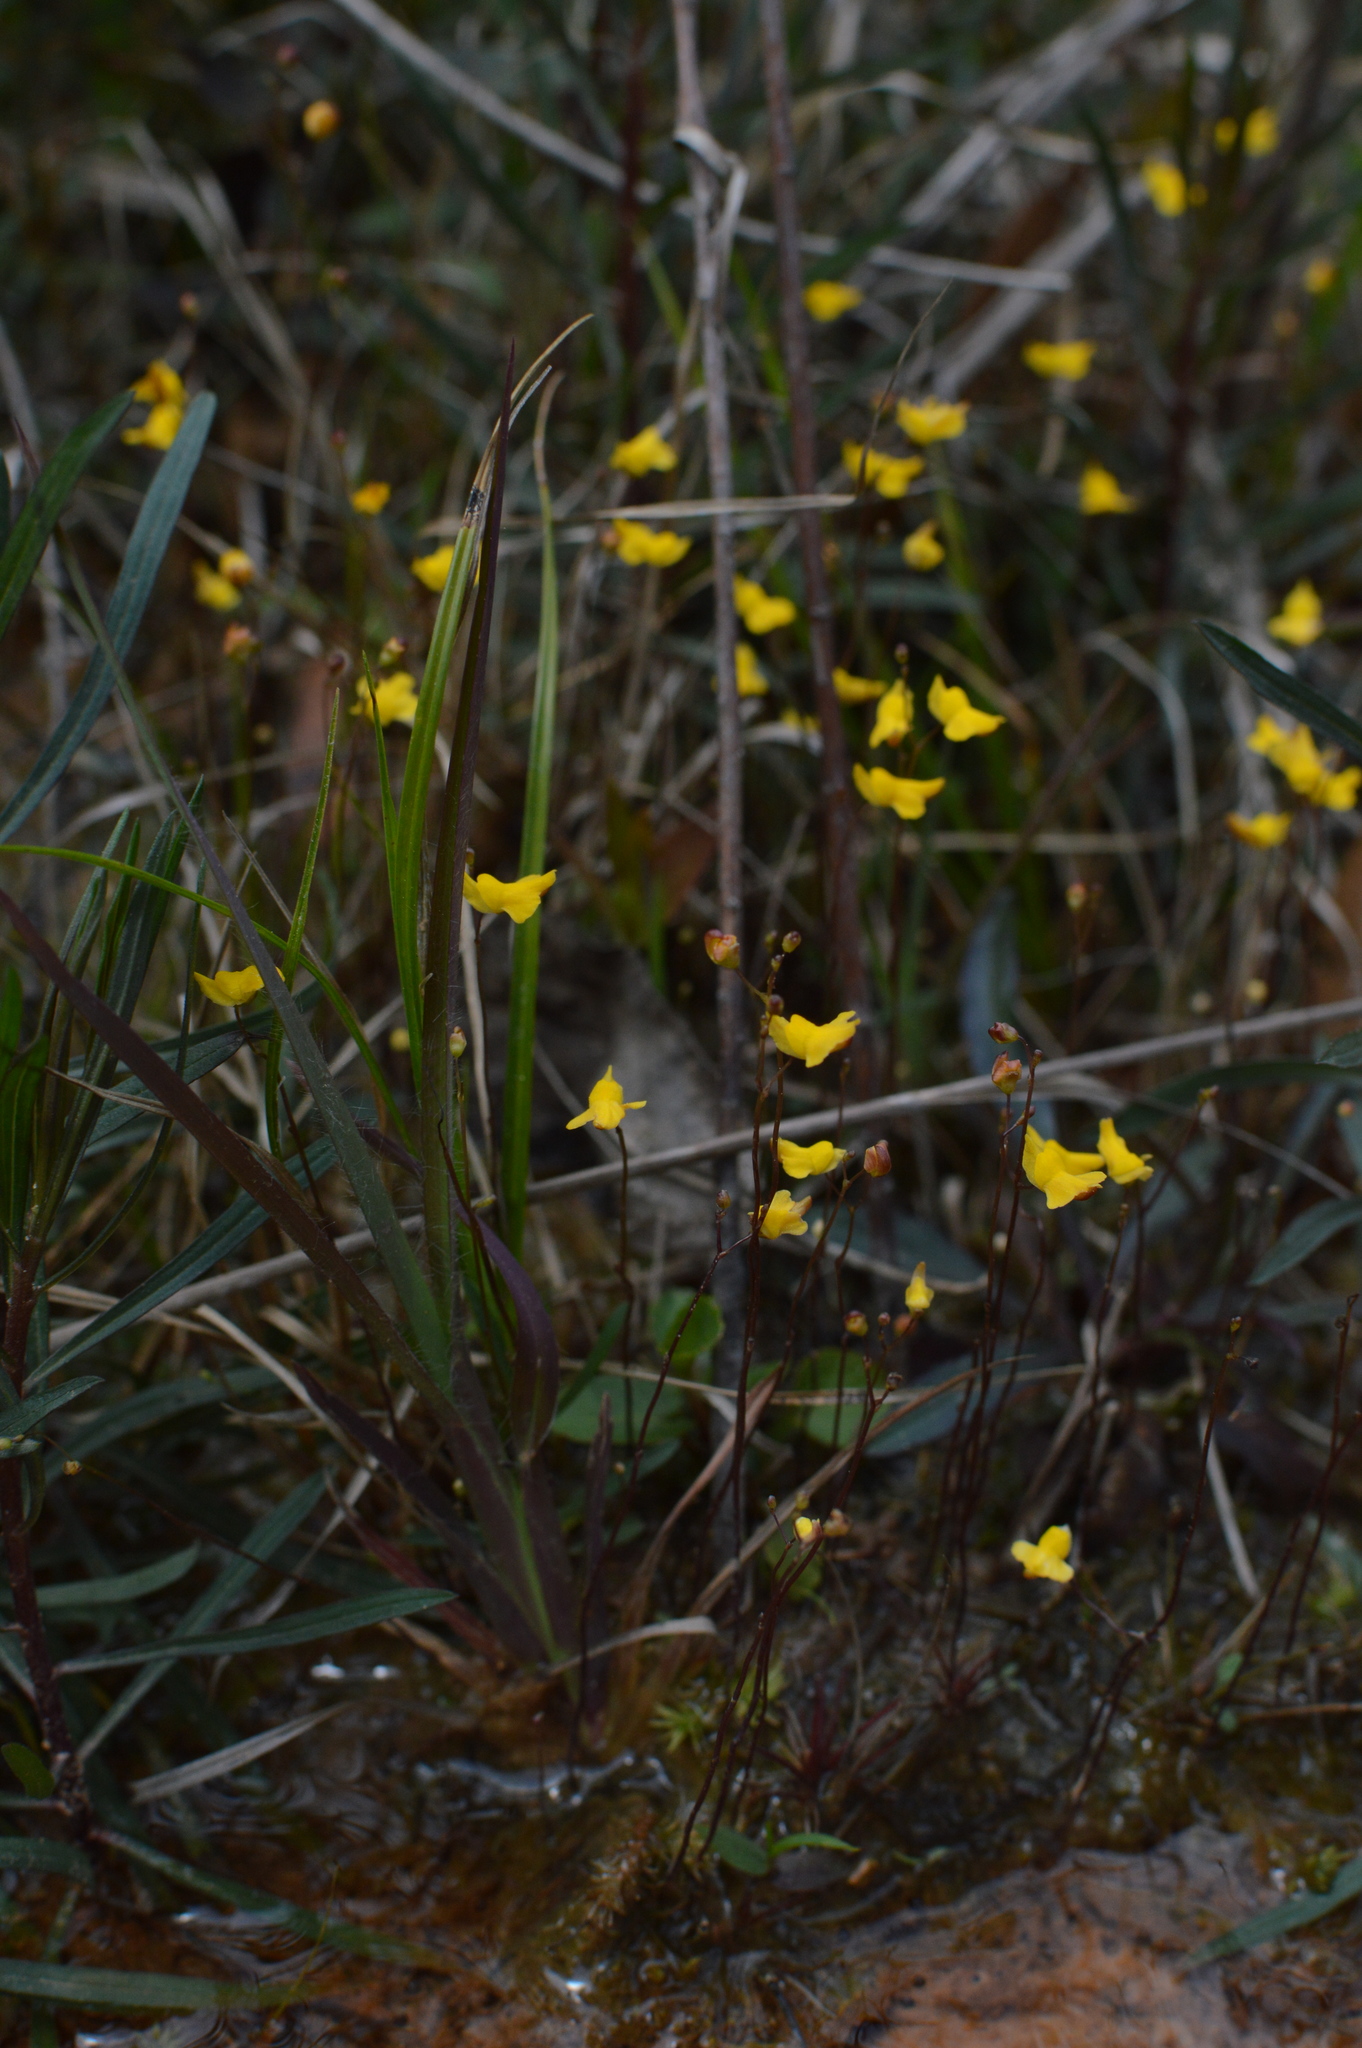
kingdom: Plantae
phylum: Tracheophyta
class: Magnoliopsida
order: Lamiales
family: Lentibulariaceae
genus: Utricularia
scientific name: Utricularia subulata
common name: Tiny bladderwort
